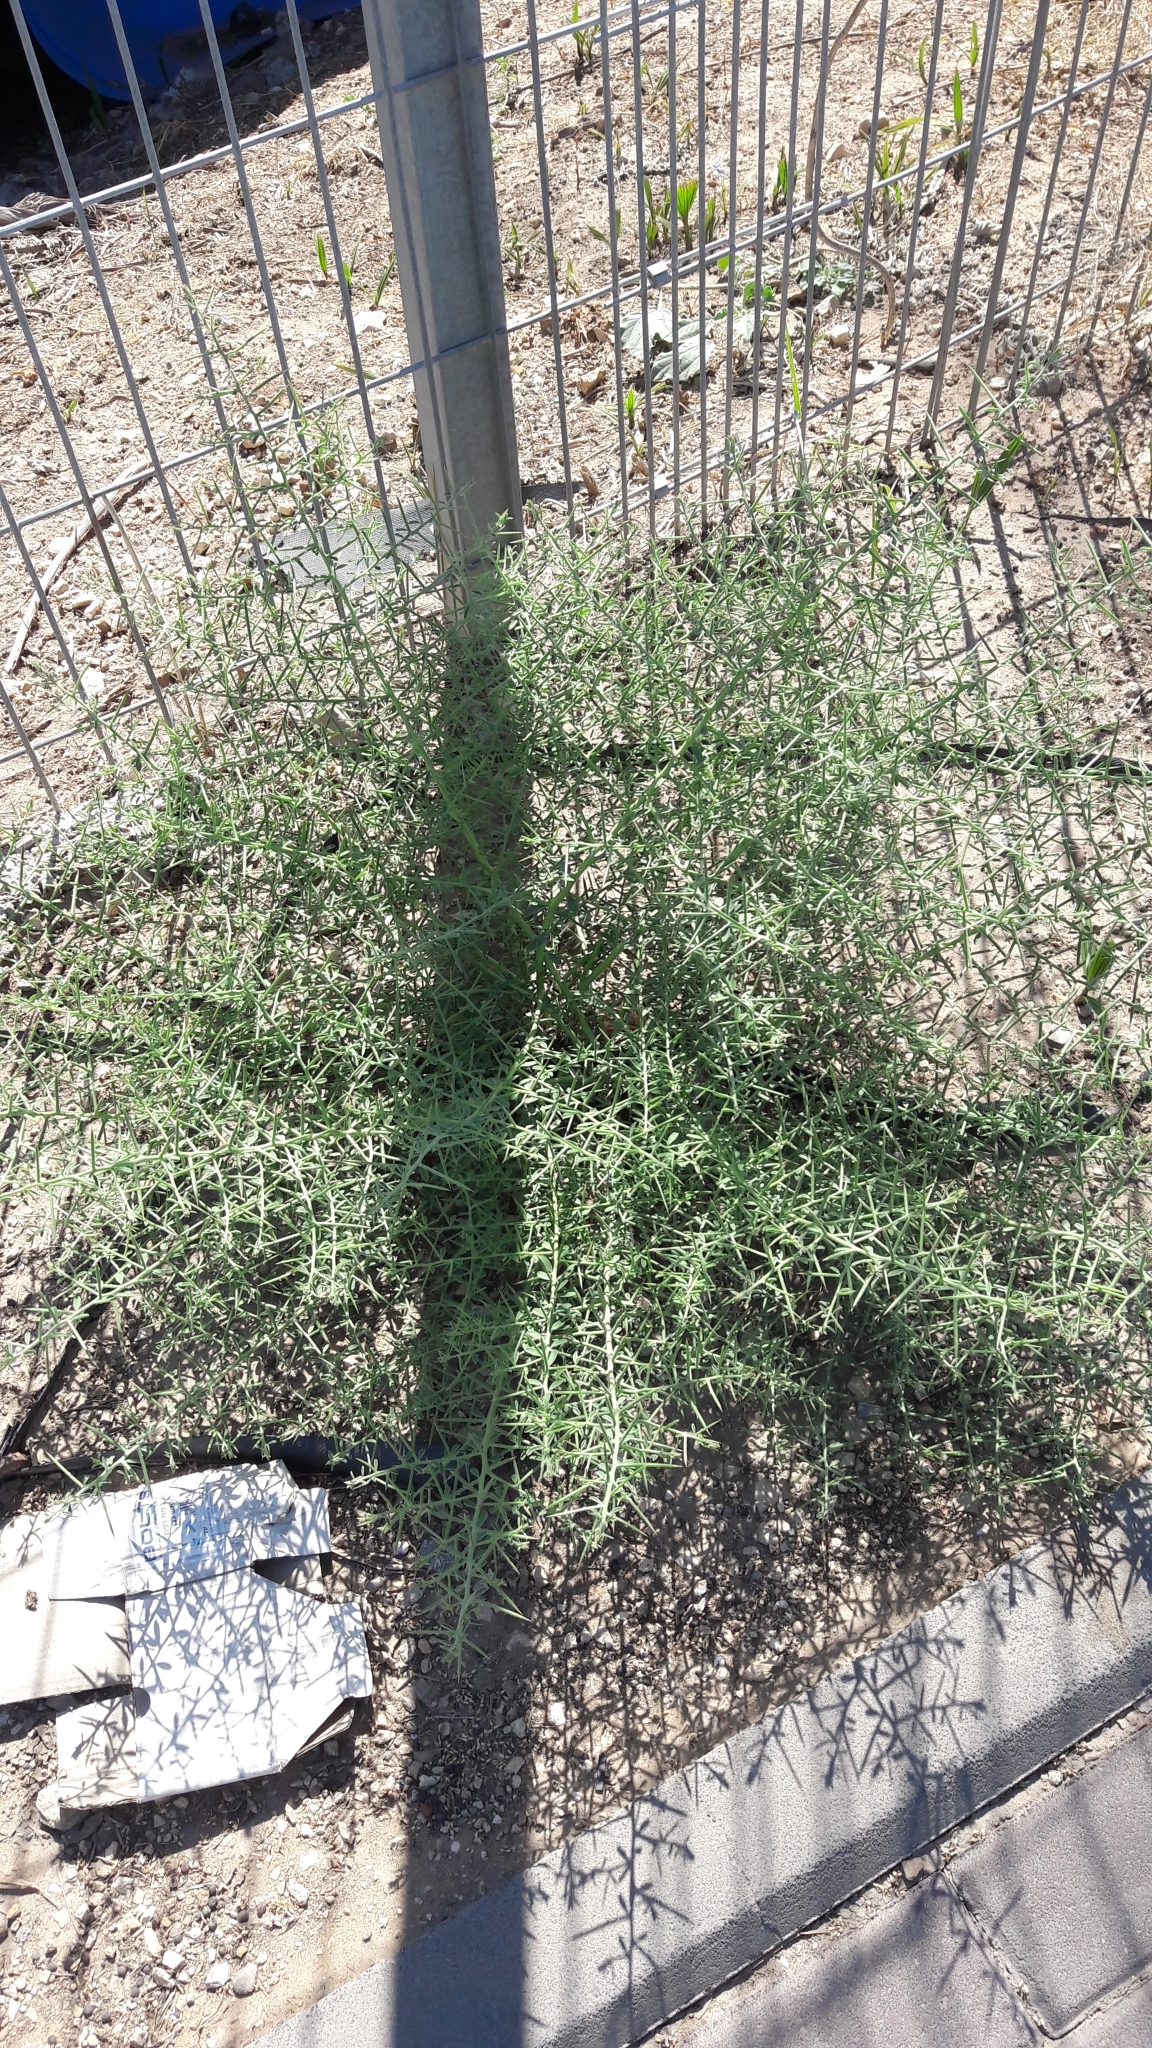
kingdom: Plantae
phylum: Tracheophyta
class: Magnoliopsida
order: Fabales
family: Fabaceae
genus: Alhagi
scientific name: Alhagi graecorum
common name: Persian mannaplant
